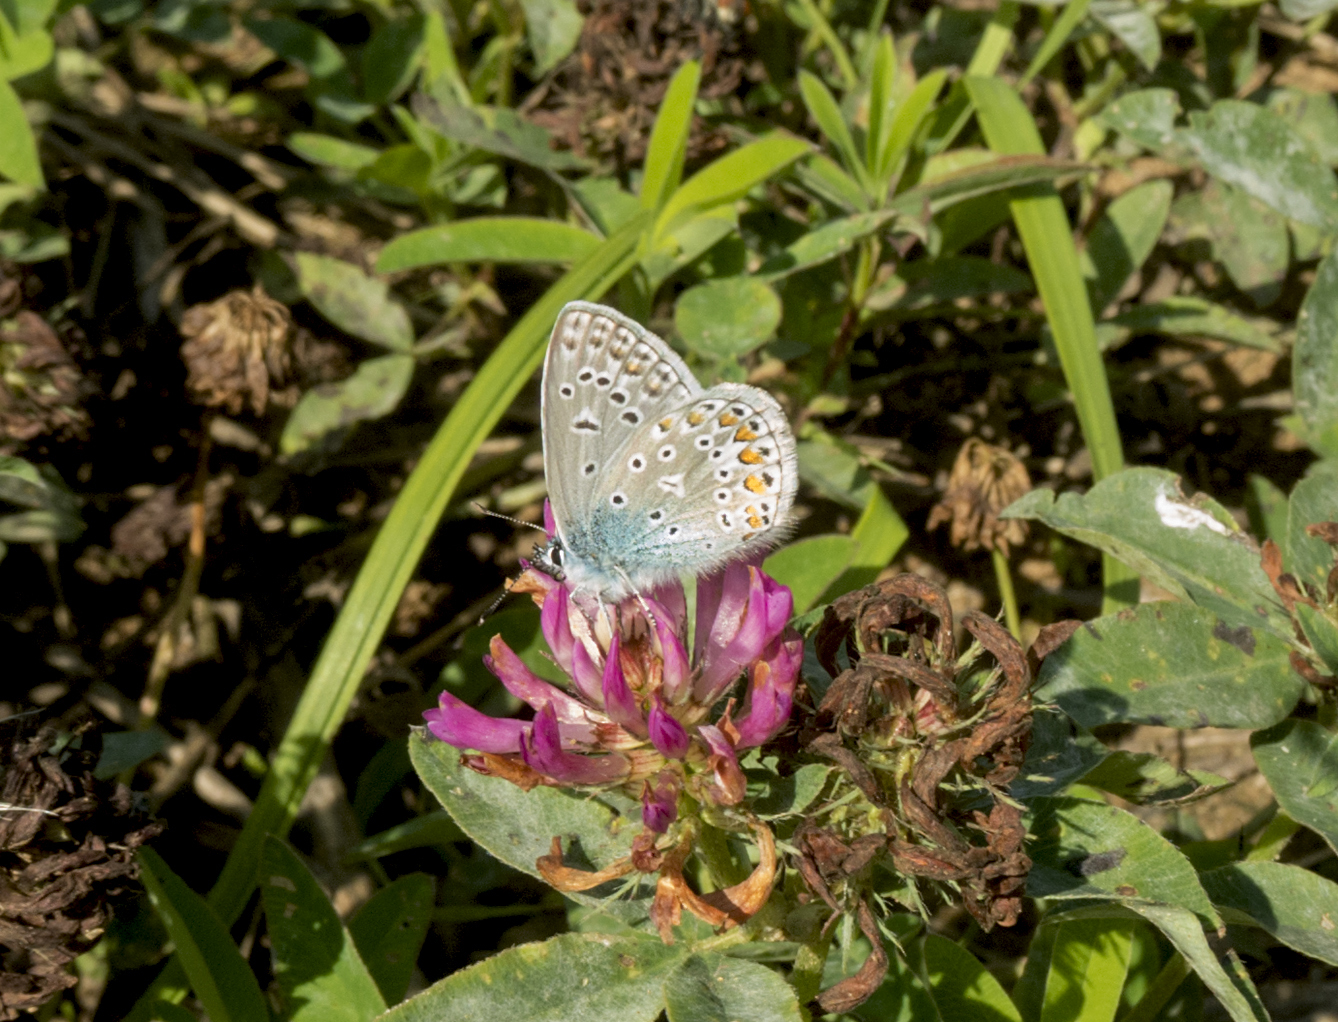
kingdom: Animalia
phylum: Arthropoda
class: Insecta
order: Lepidoptera
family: Lycaenidae
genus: Polyommatus
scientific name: Polyommatus icarus
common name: Common blue
